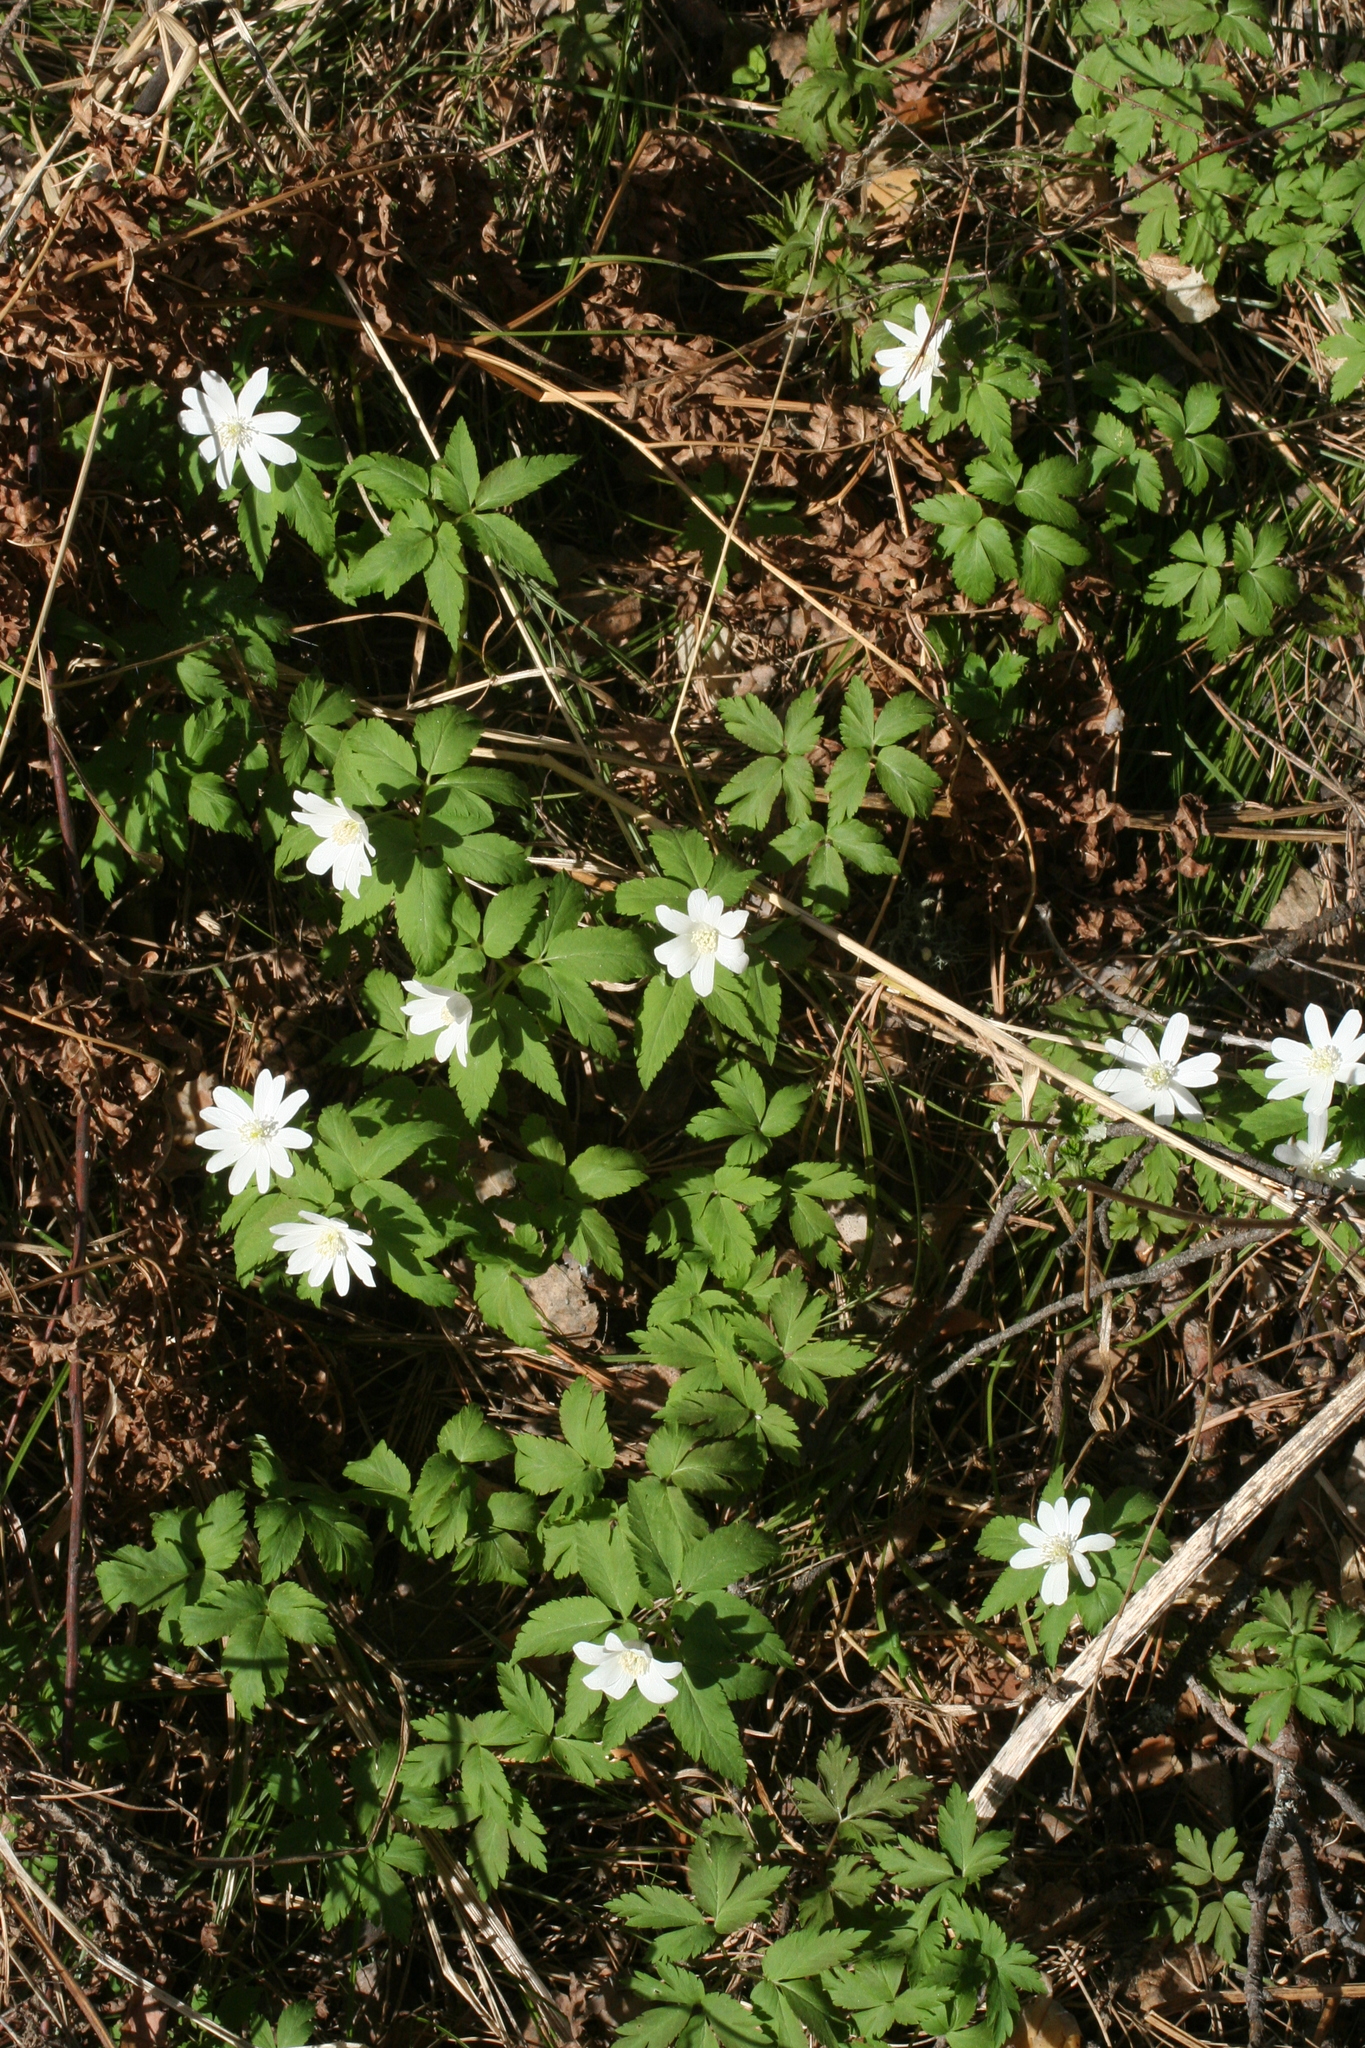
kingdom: Plantae
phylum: Tracheophyta
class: Magnoliopsida
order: Ranunculales
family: Ranunculaceae
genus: Anemone
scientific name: Anemone altaica
